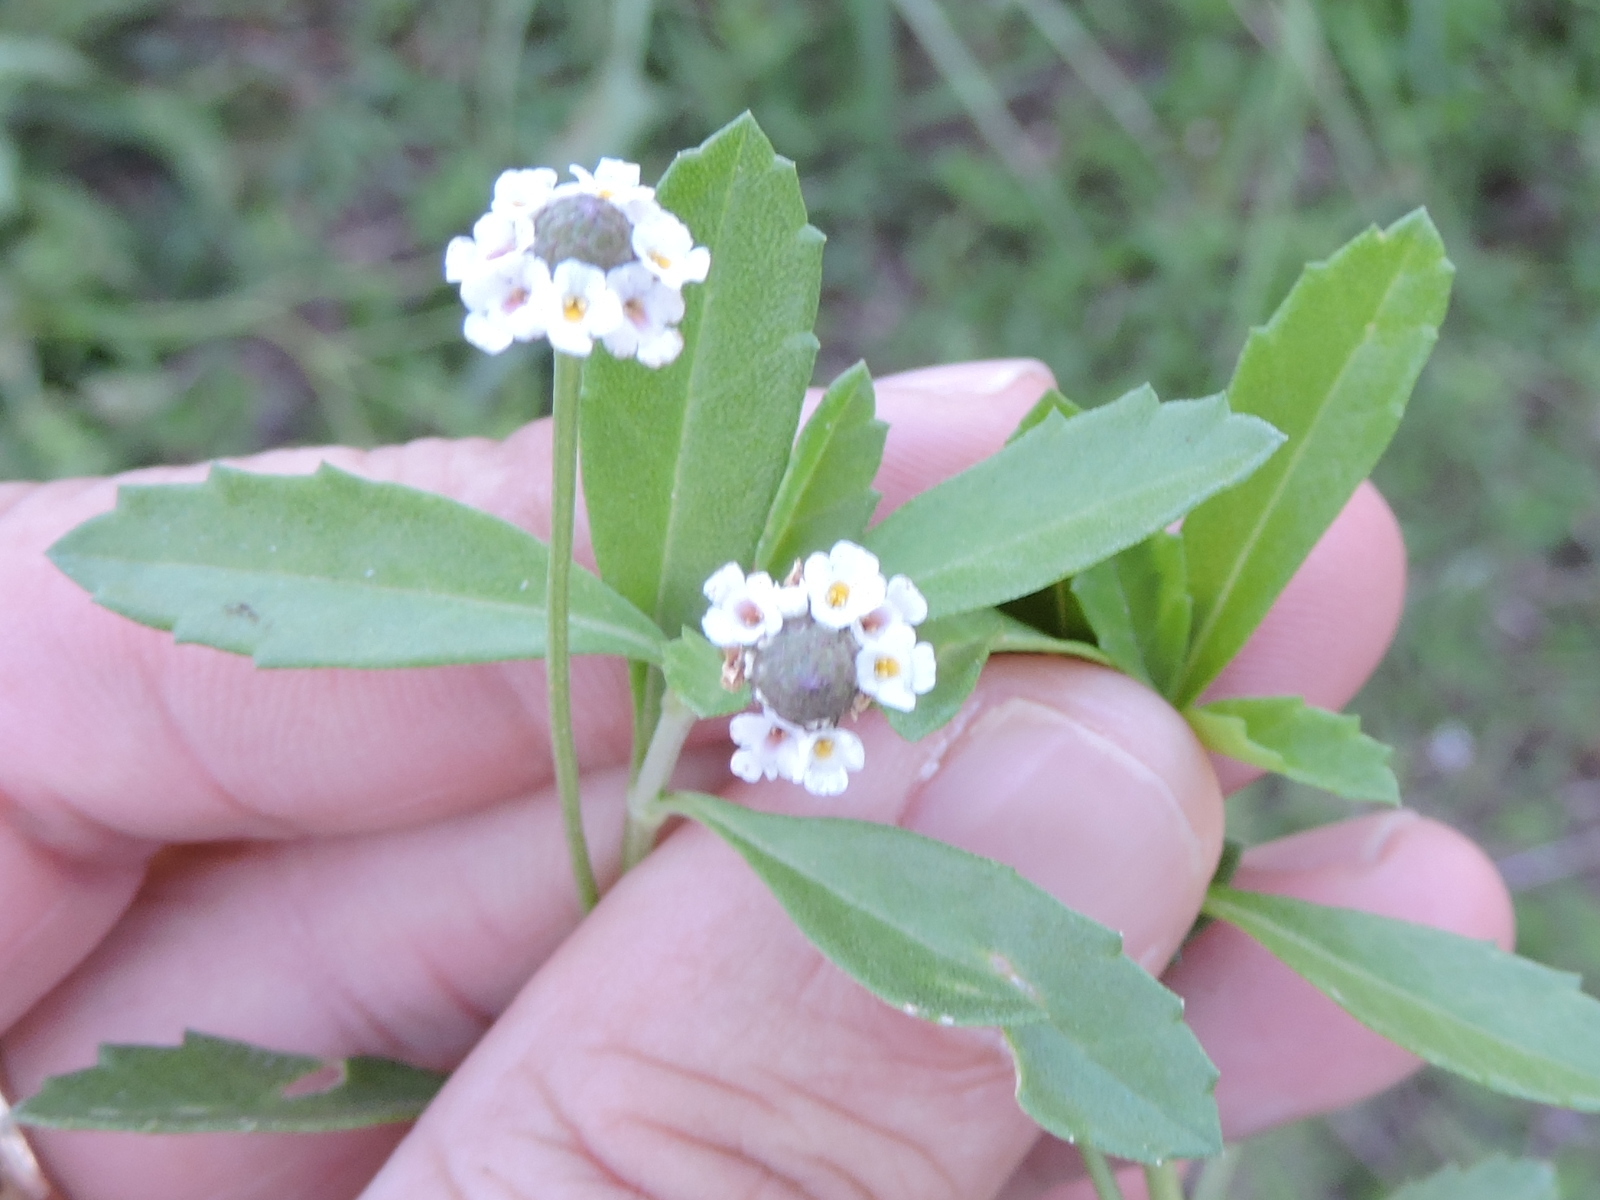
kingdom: Plantae
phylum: Tracheophyta
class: Magnoliopsida
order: Lamiales
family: Verbenaceae
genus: Phyla
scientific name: Phyla nodiflora
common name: Frogfruit
